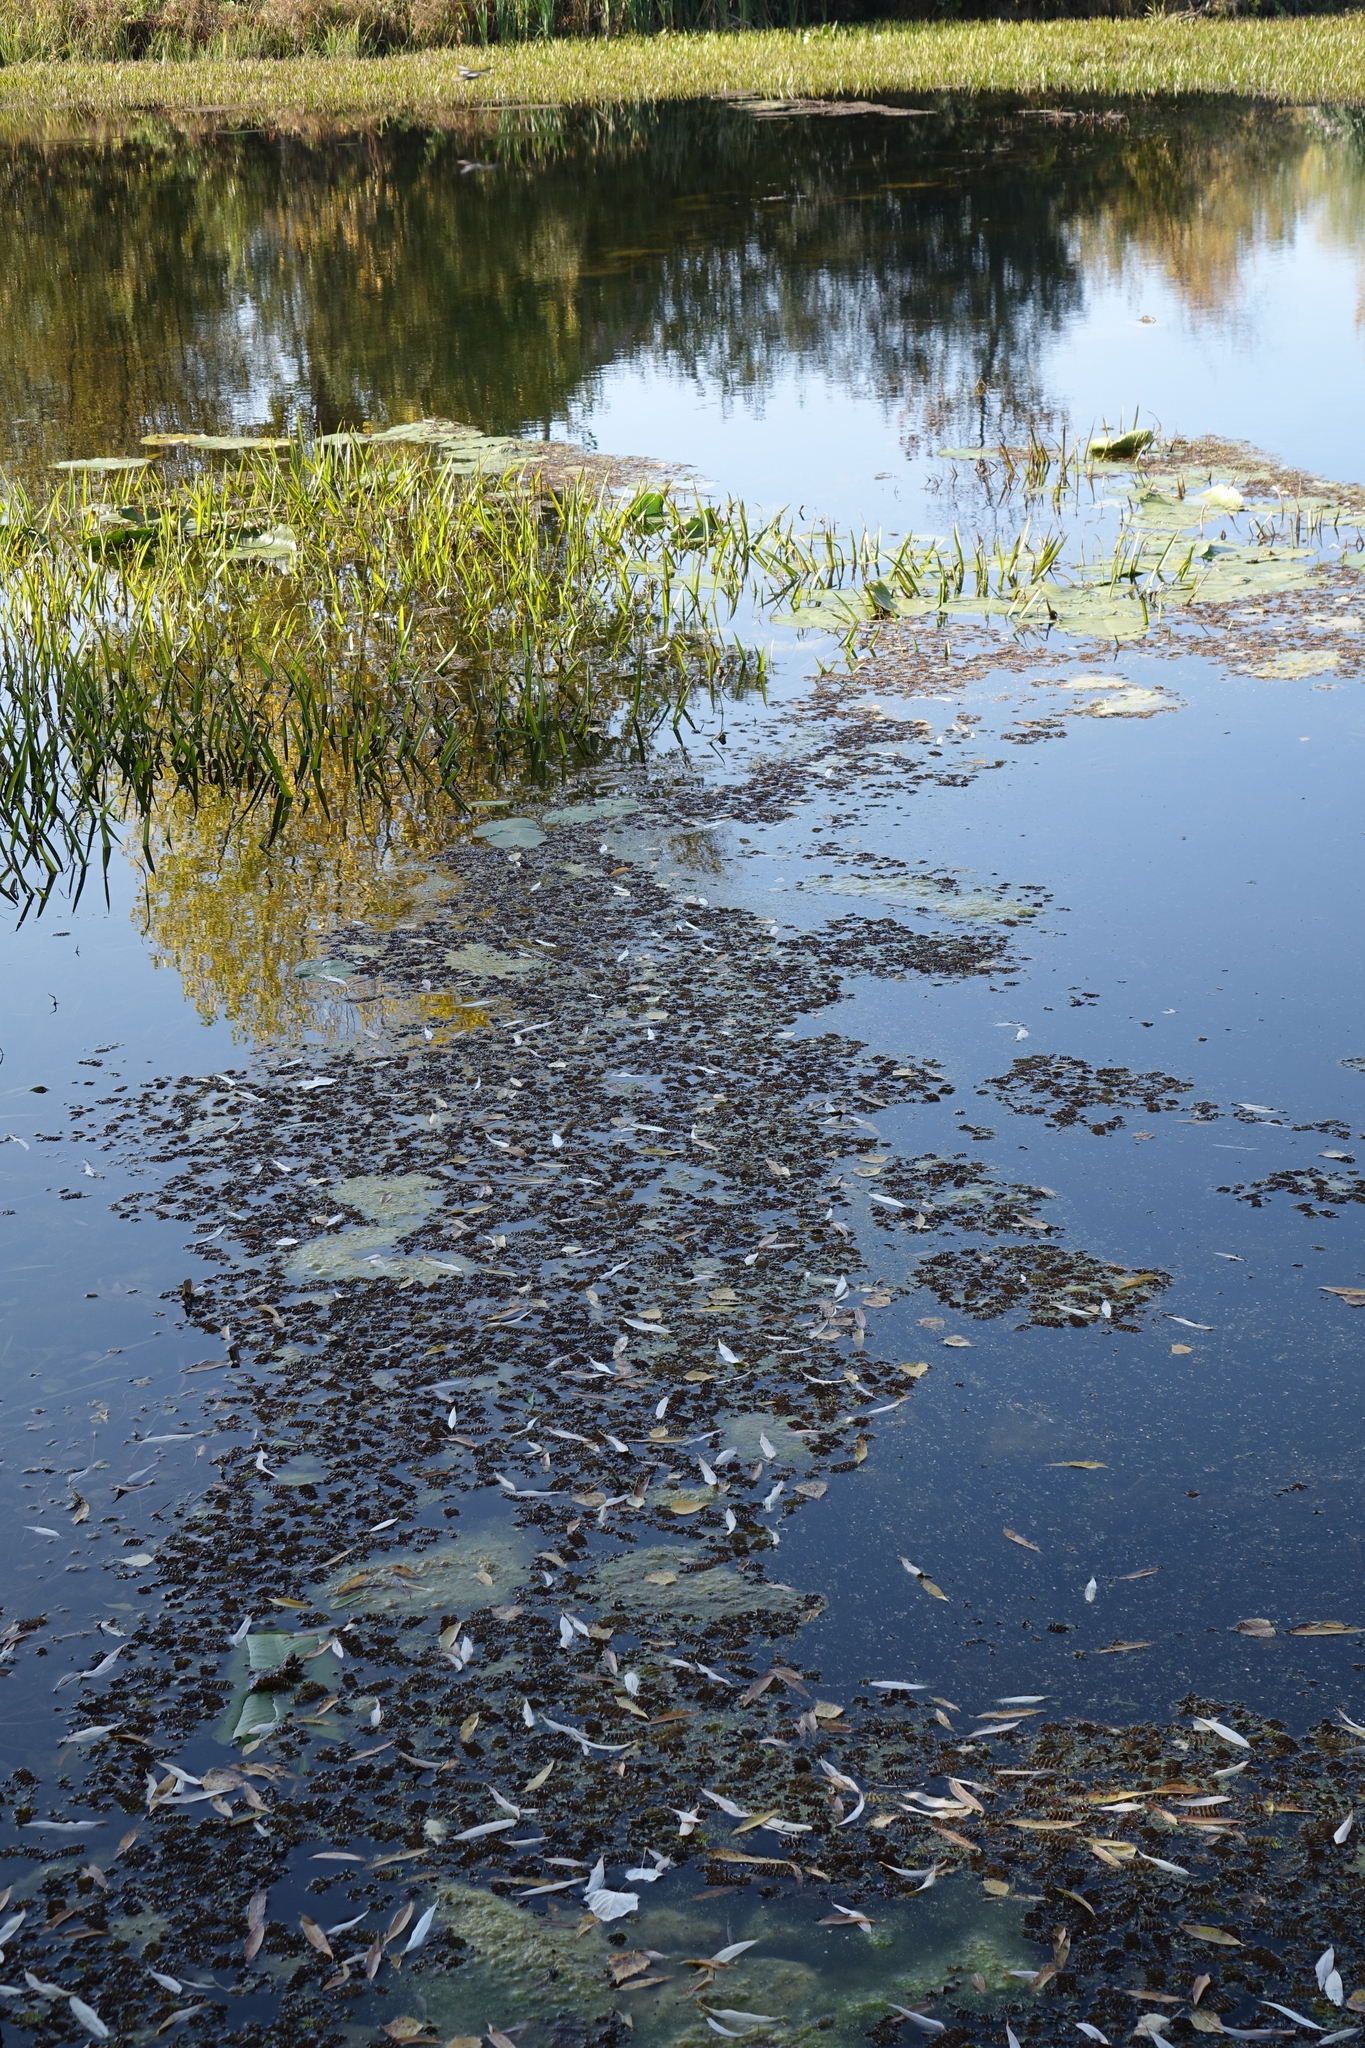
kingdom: Plantae
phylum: Tracheophyta
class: Polypodiopsida
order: Salviniales
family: Salviniaceae
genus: Salvinia
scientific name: Salvinia natans
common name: Floating fern
